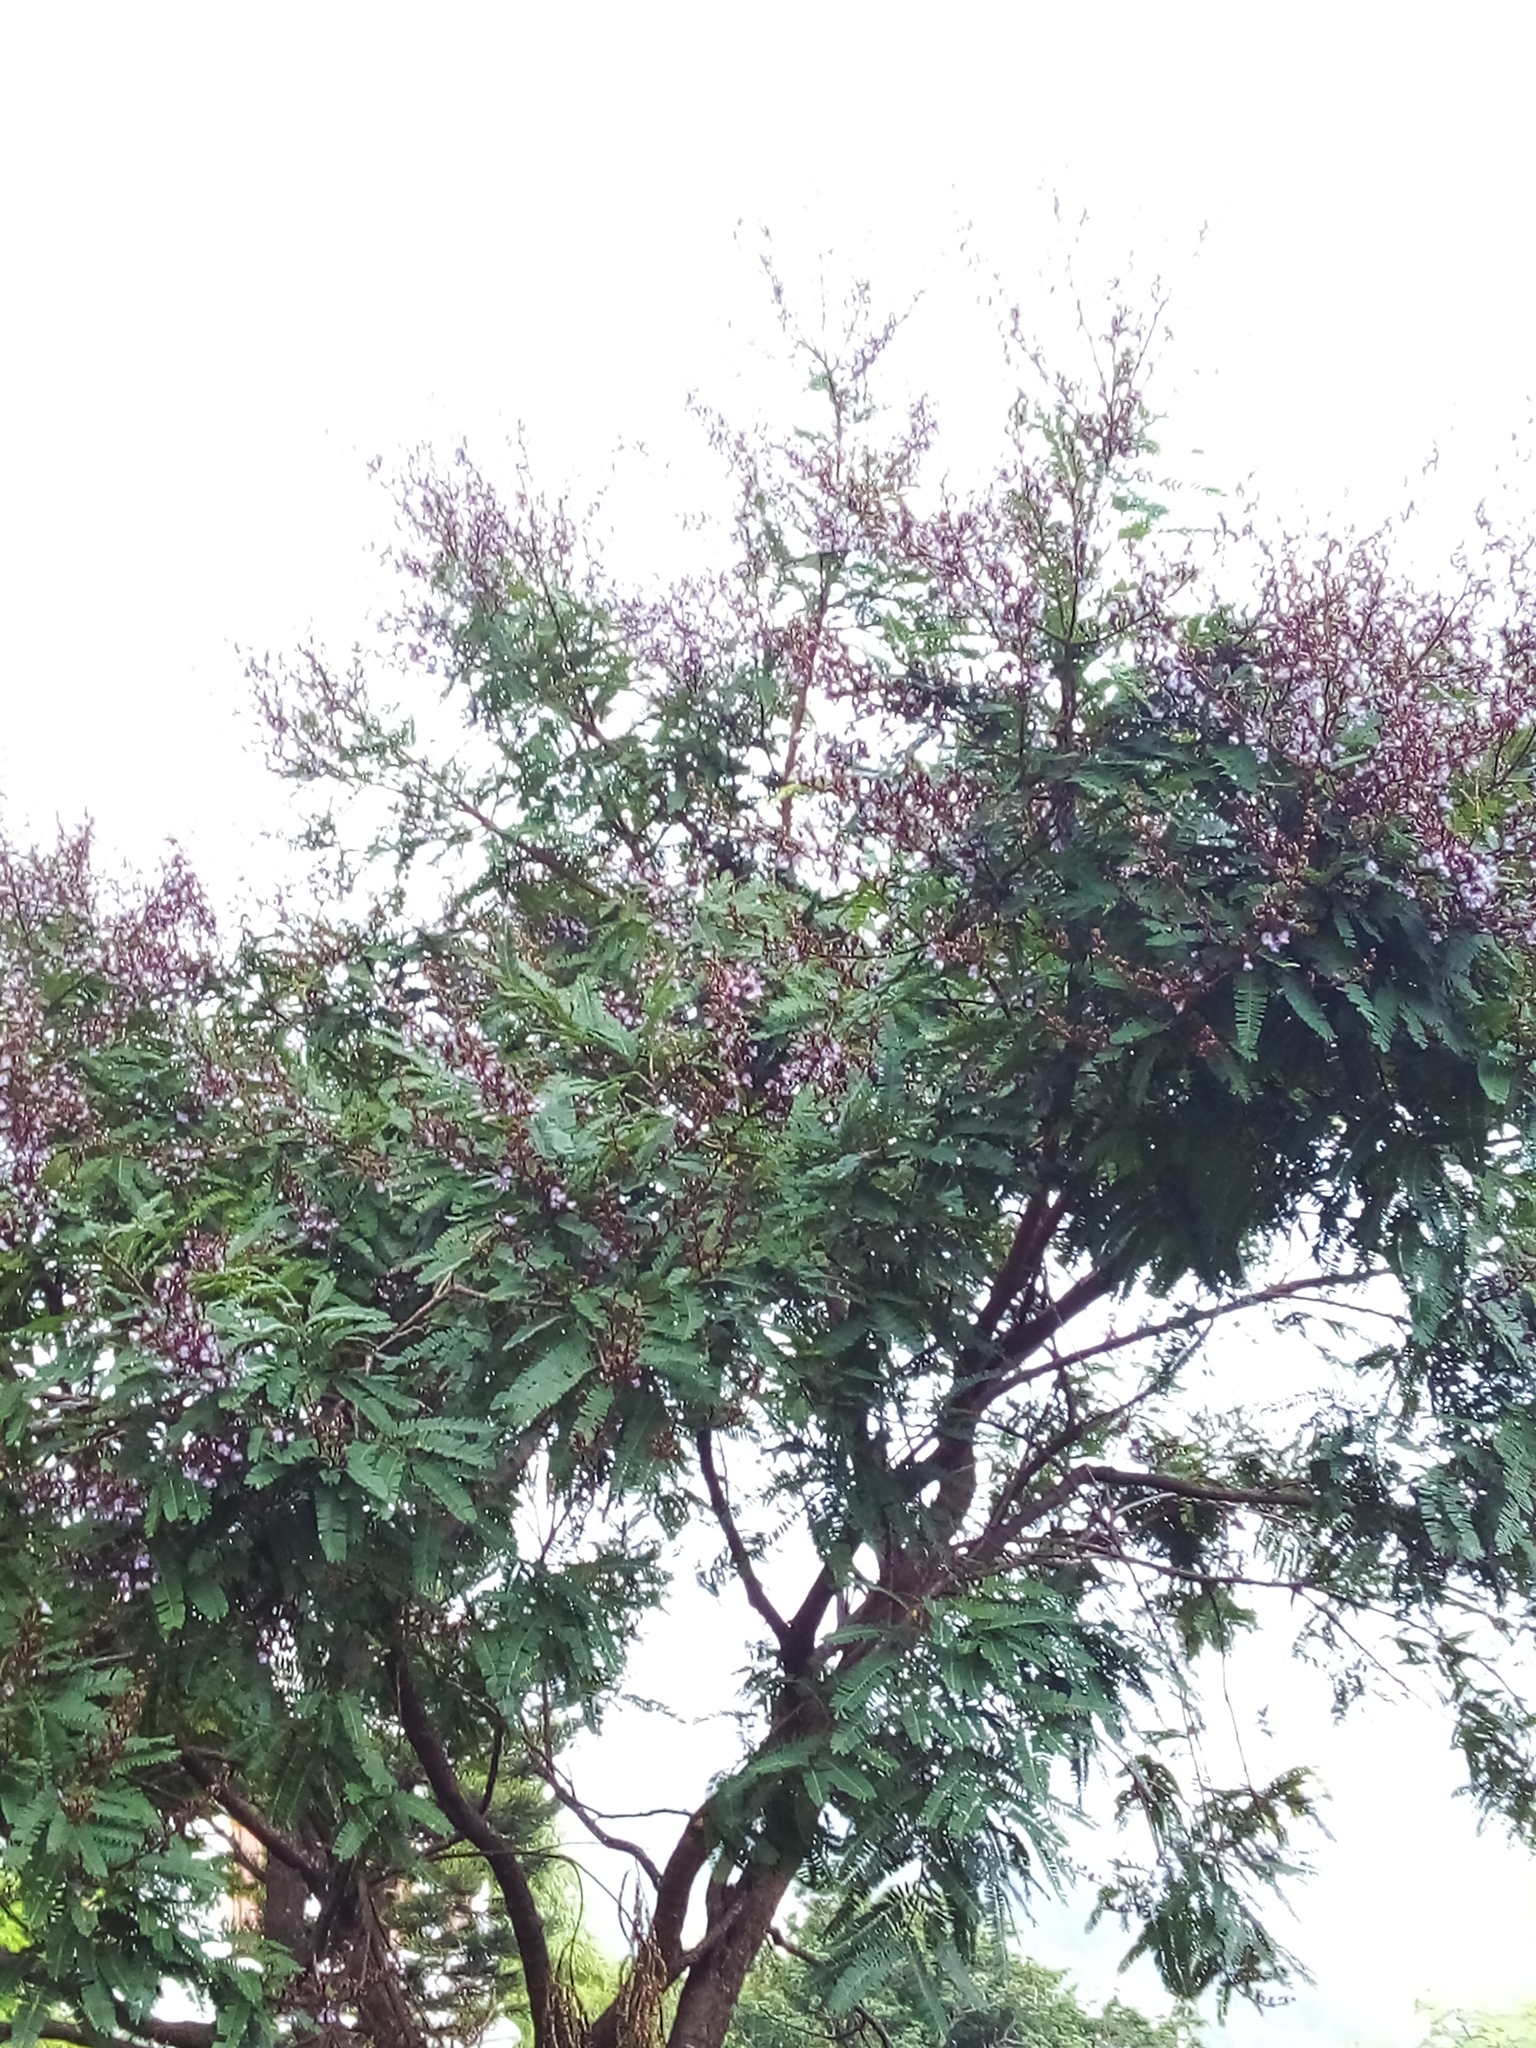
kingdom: Plantae
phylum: Tracheophyta
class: Magnoliopsida
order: Fabales
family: Fabaceae
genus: Machaerium
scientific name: Machaerium hirtum
